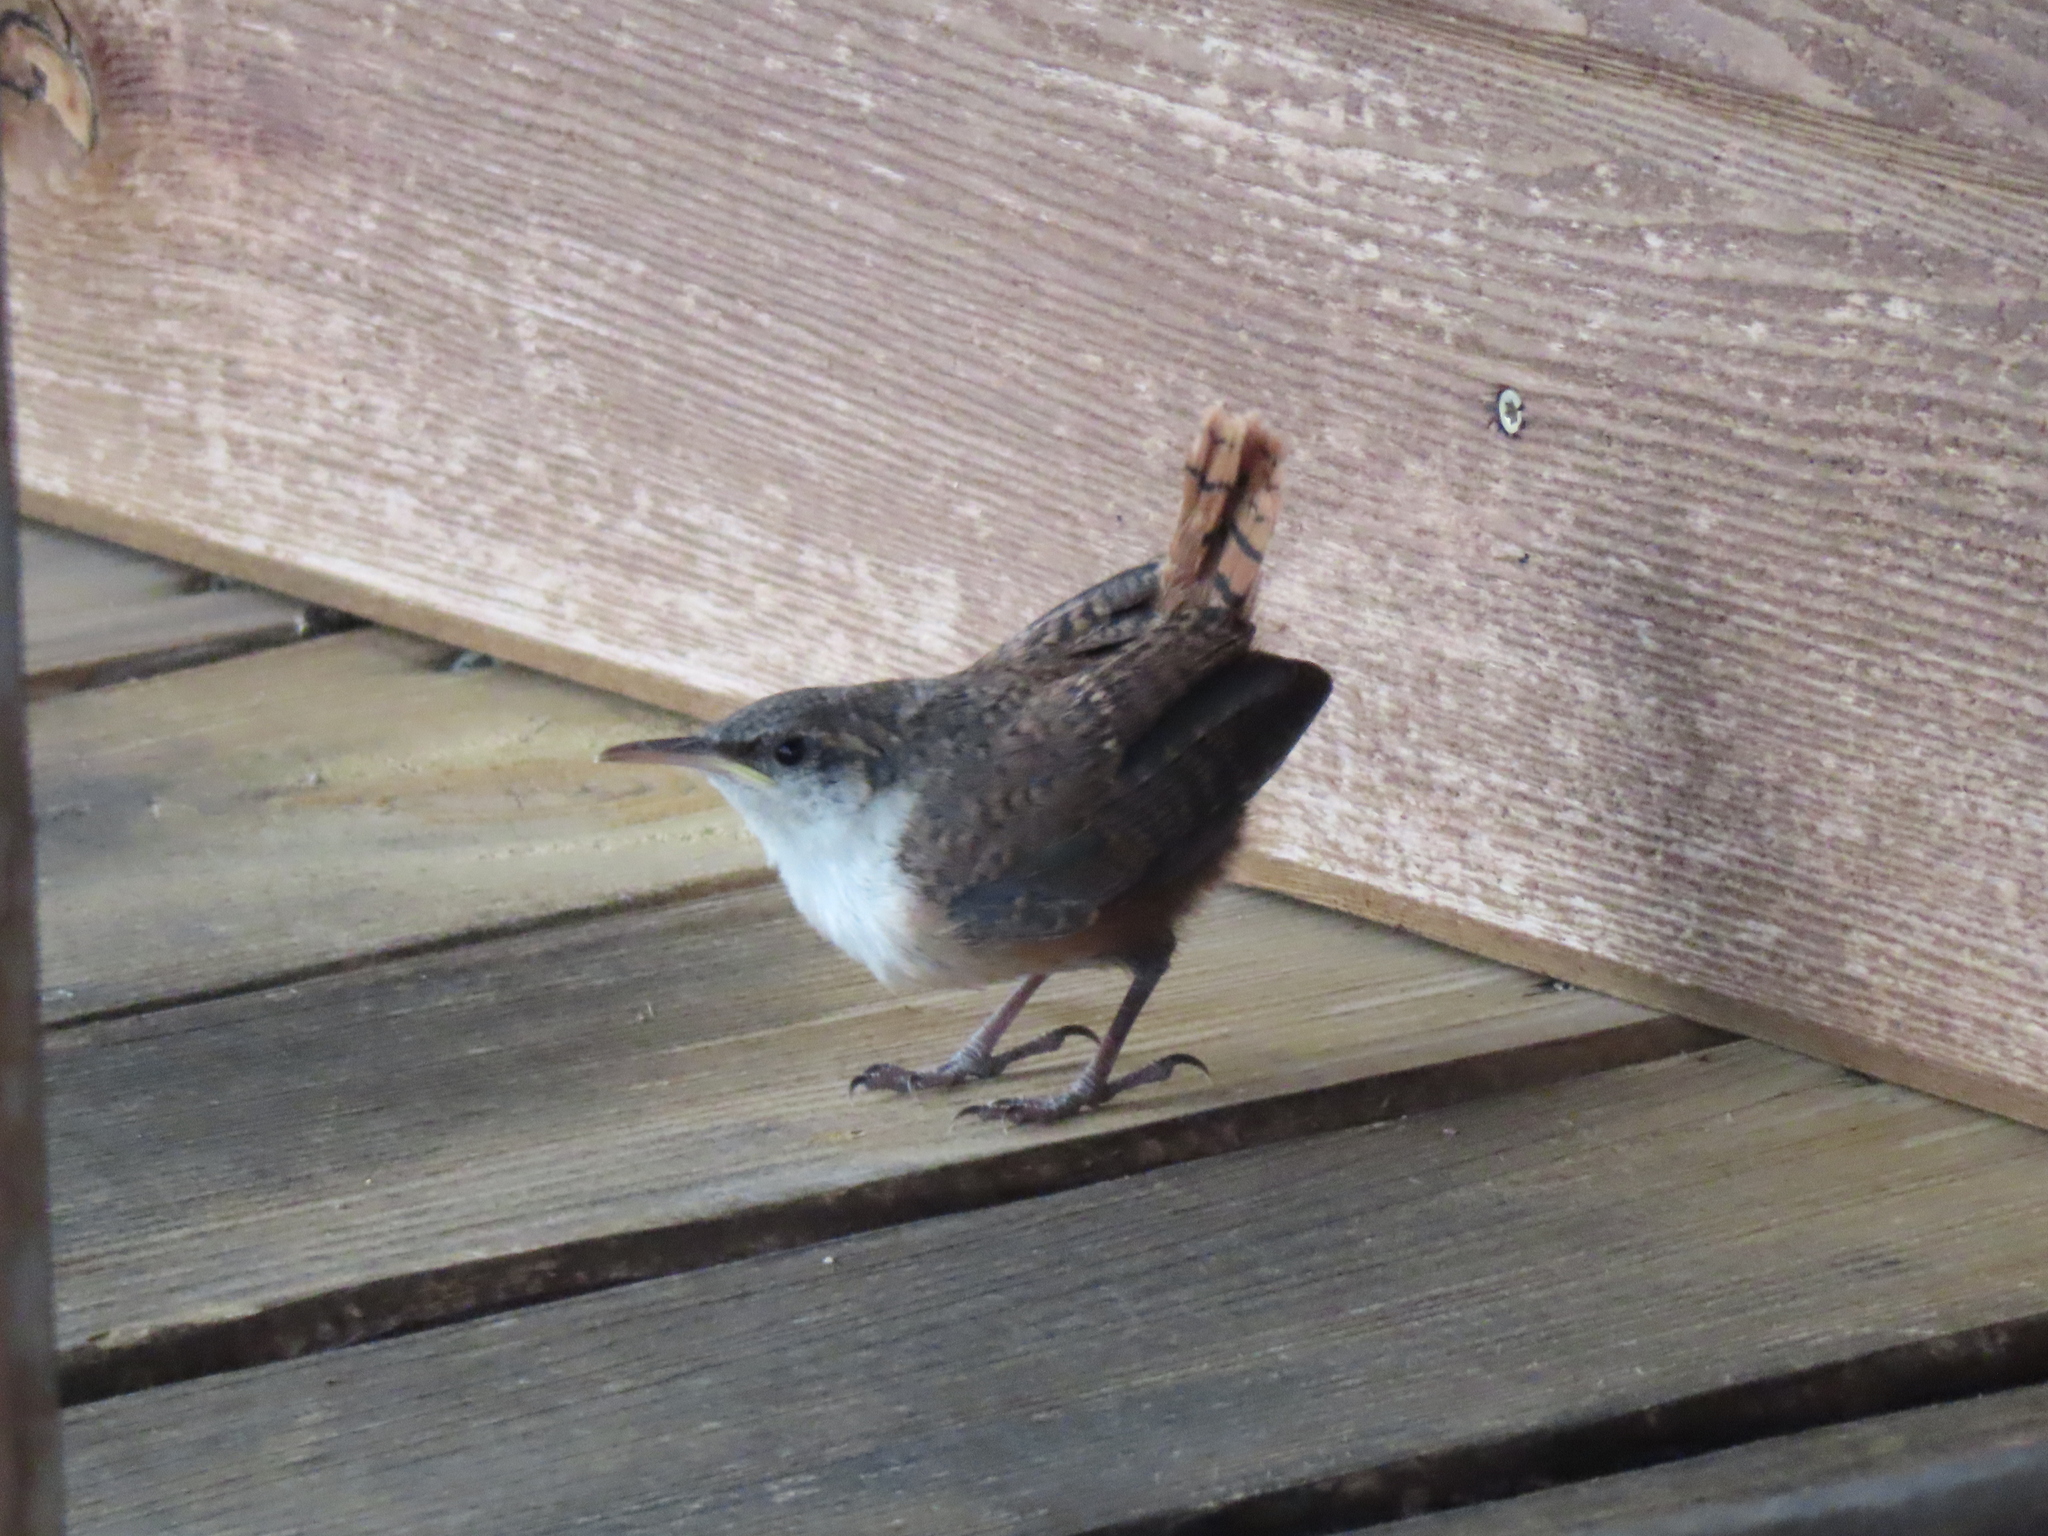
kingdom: Animalia
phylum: Chordata
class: Aves
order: Passeriformes
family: Troglodytidae
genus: Catherpes
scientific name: Catherpes mexicanus
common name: Canyon wren
